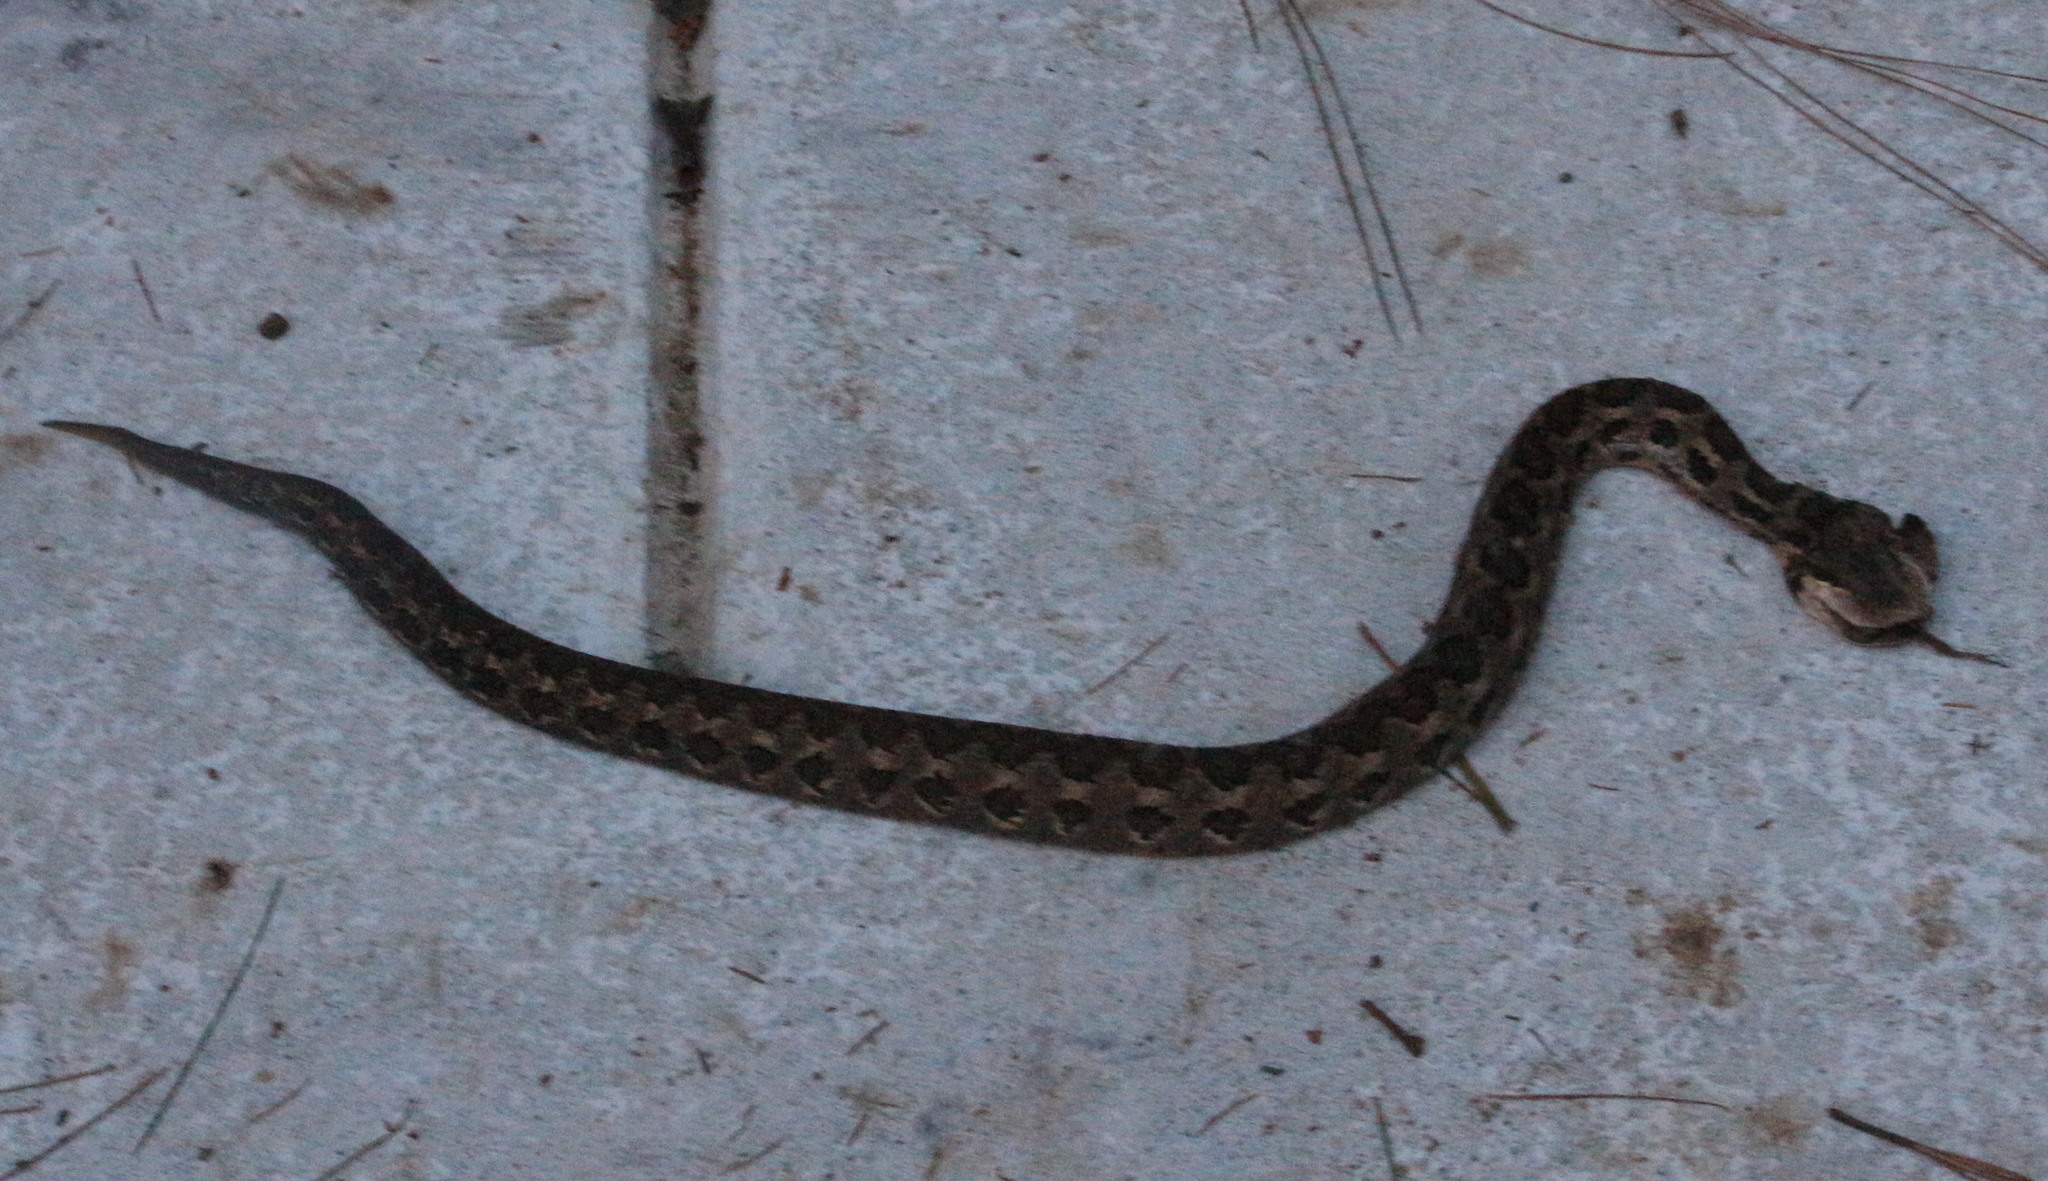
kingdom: Animalia
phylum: Chordata
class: Squamata
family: Viperidae
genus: Cerrophidion
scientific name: Cerrophidion godmani
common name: Godman's montane pit viper
